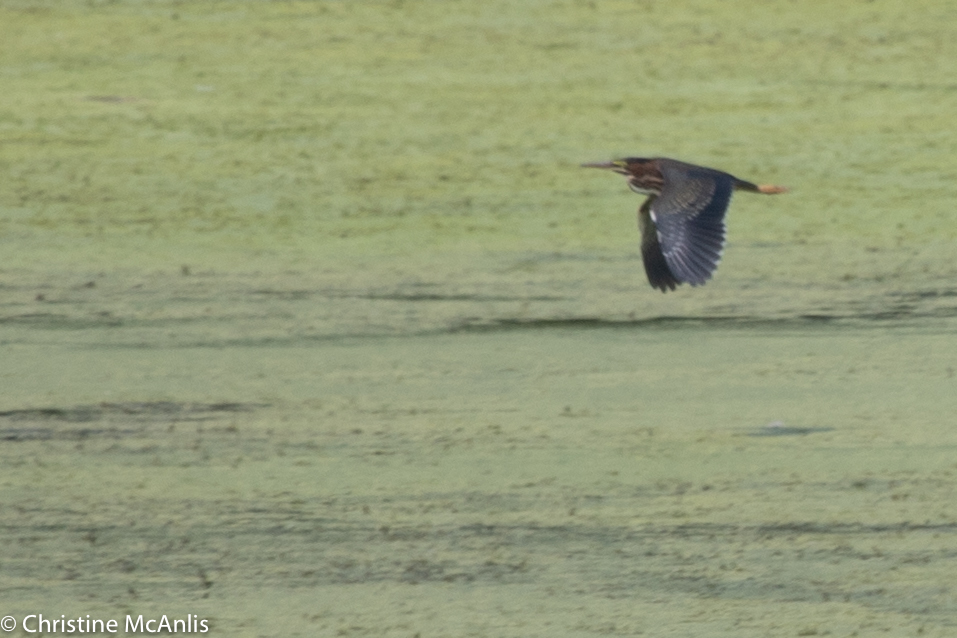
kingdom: Animalia
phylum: Chordata
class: Aves
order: Pelecaniformes
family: Ardeidae
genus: Butorides
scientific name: Butorides virescens
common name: Green heron
